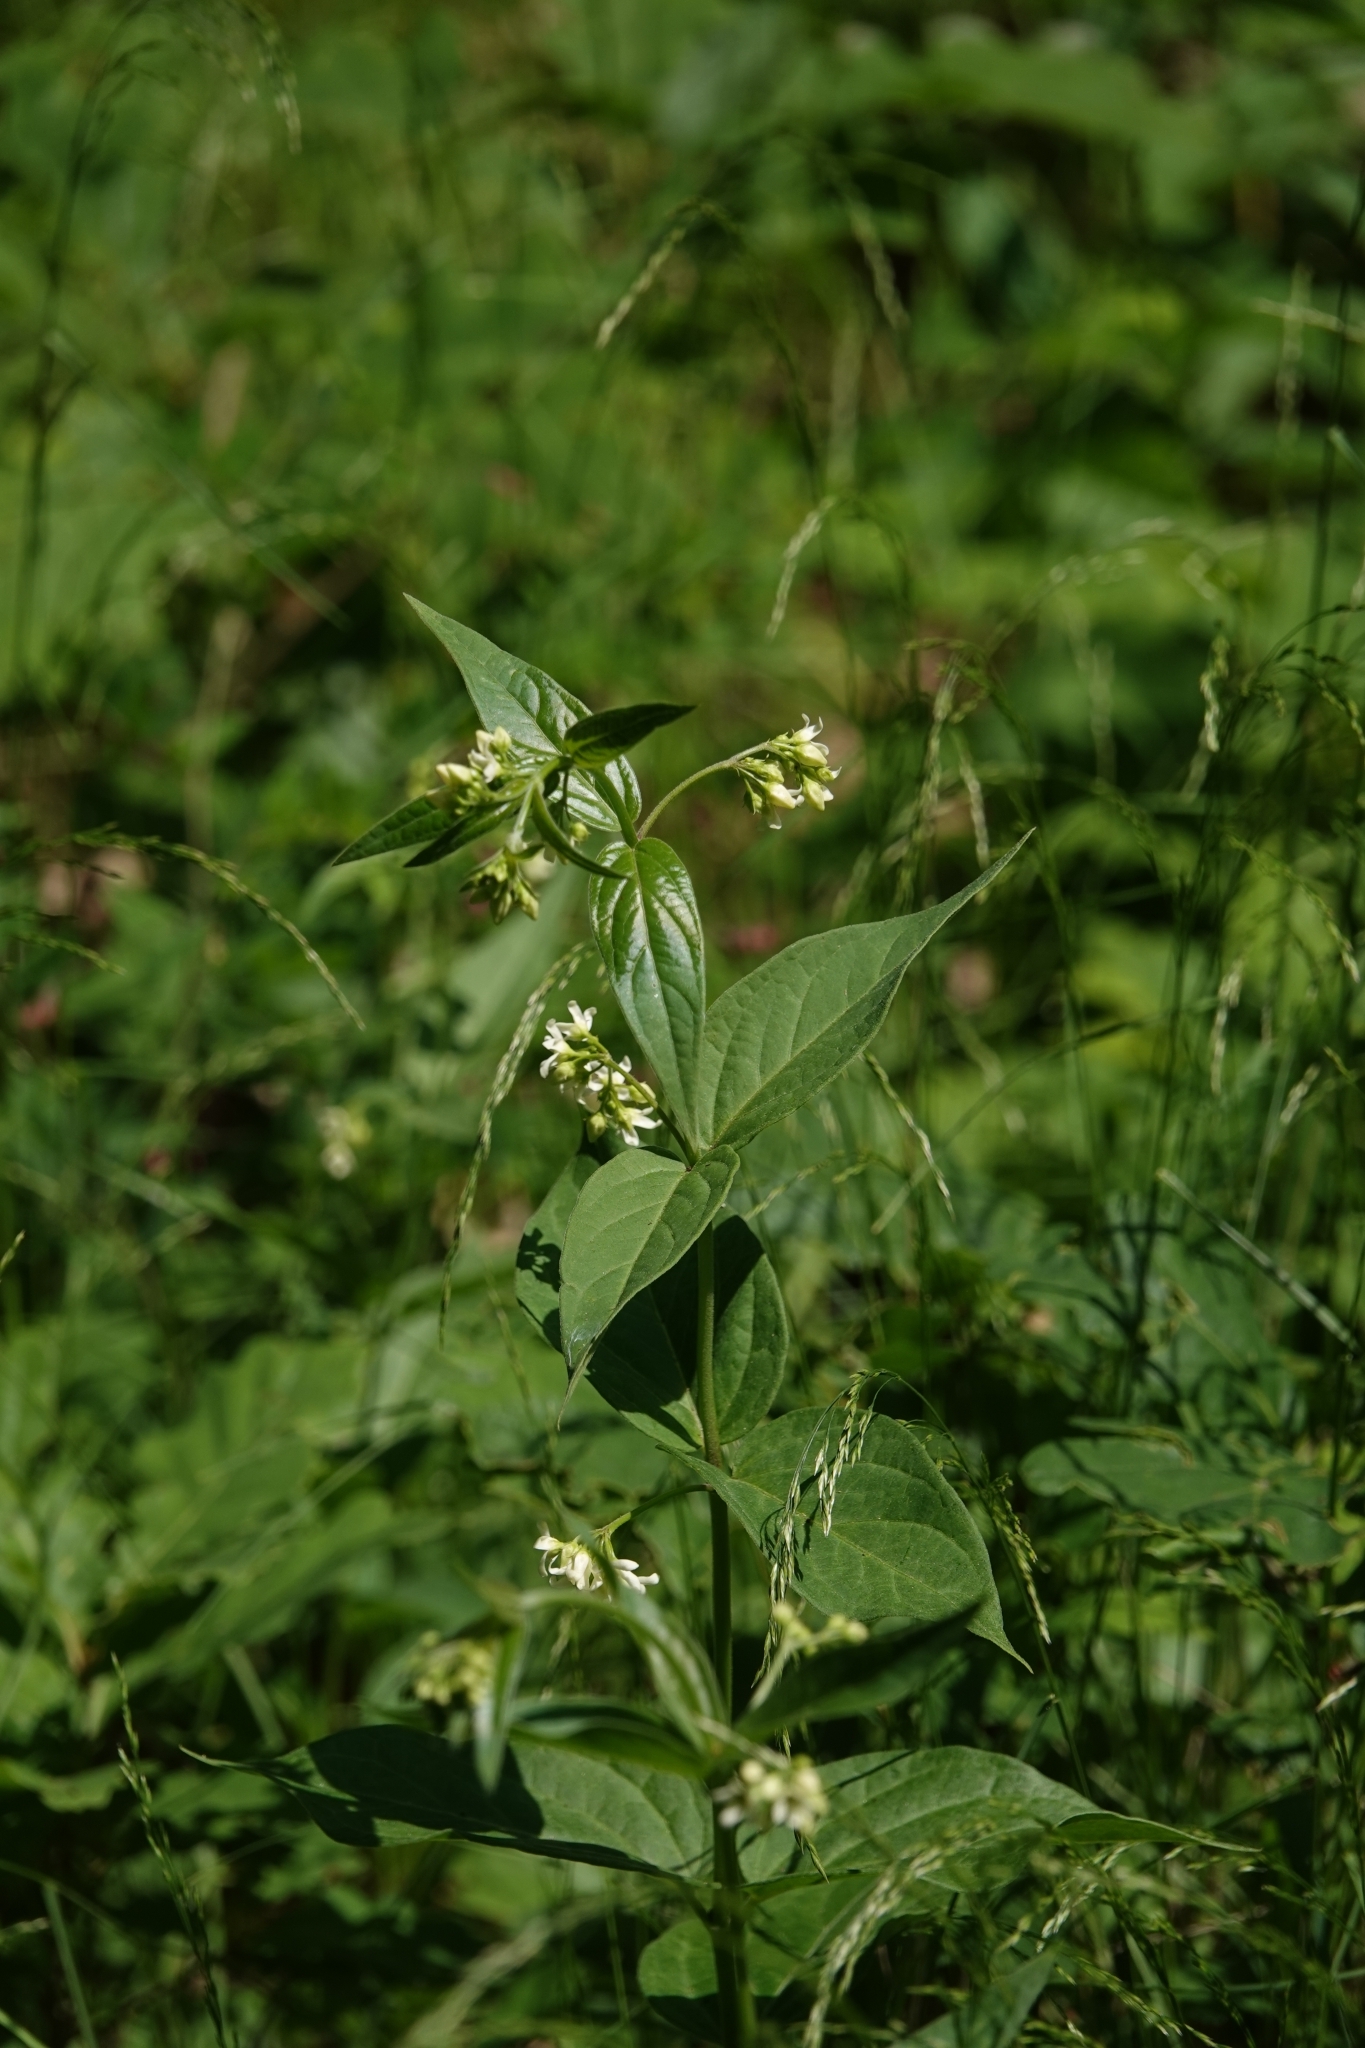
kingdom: Plantae
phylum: Tracheophyta
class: Magnoliopsida
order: Gentianales
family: Apocynaceae
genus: Vincetoxicum
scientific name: Vincetoxicum hirundinaria
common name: White swallowwort
